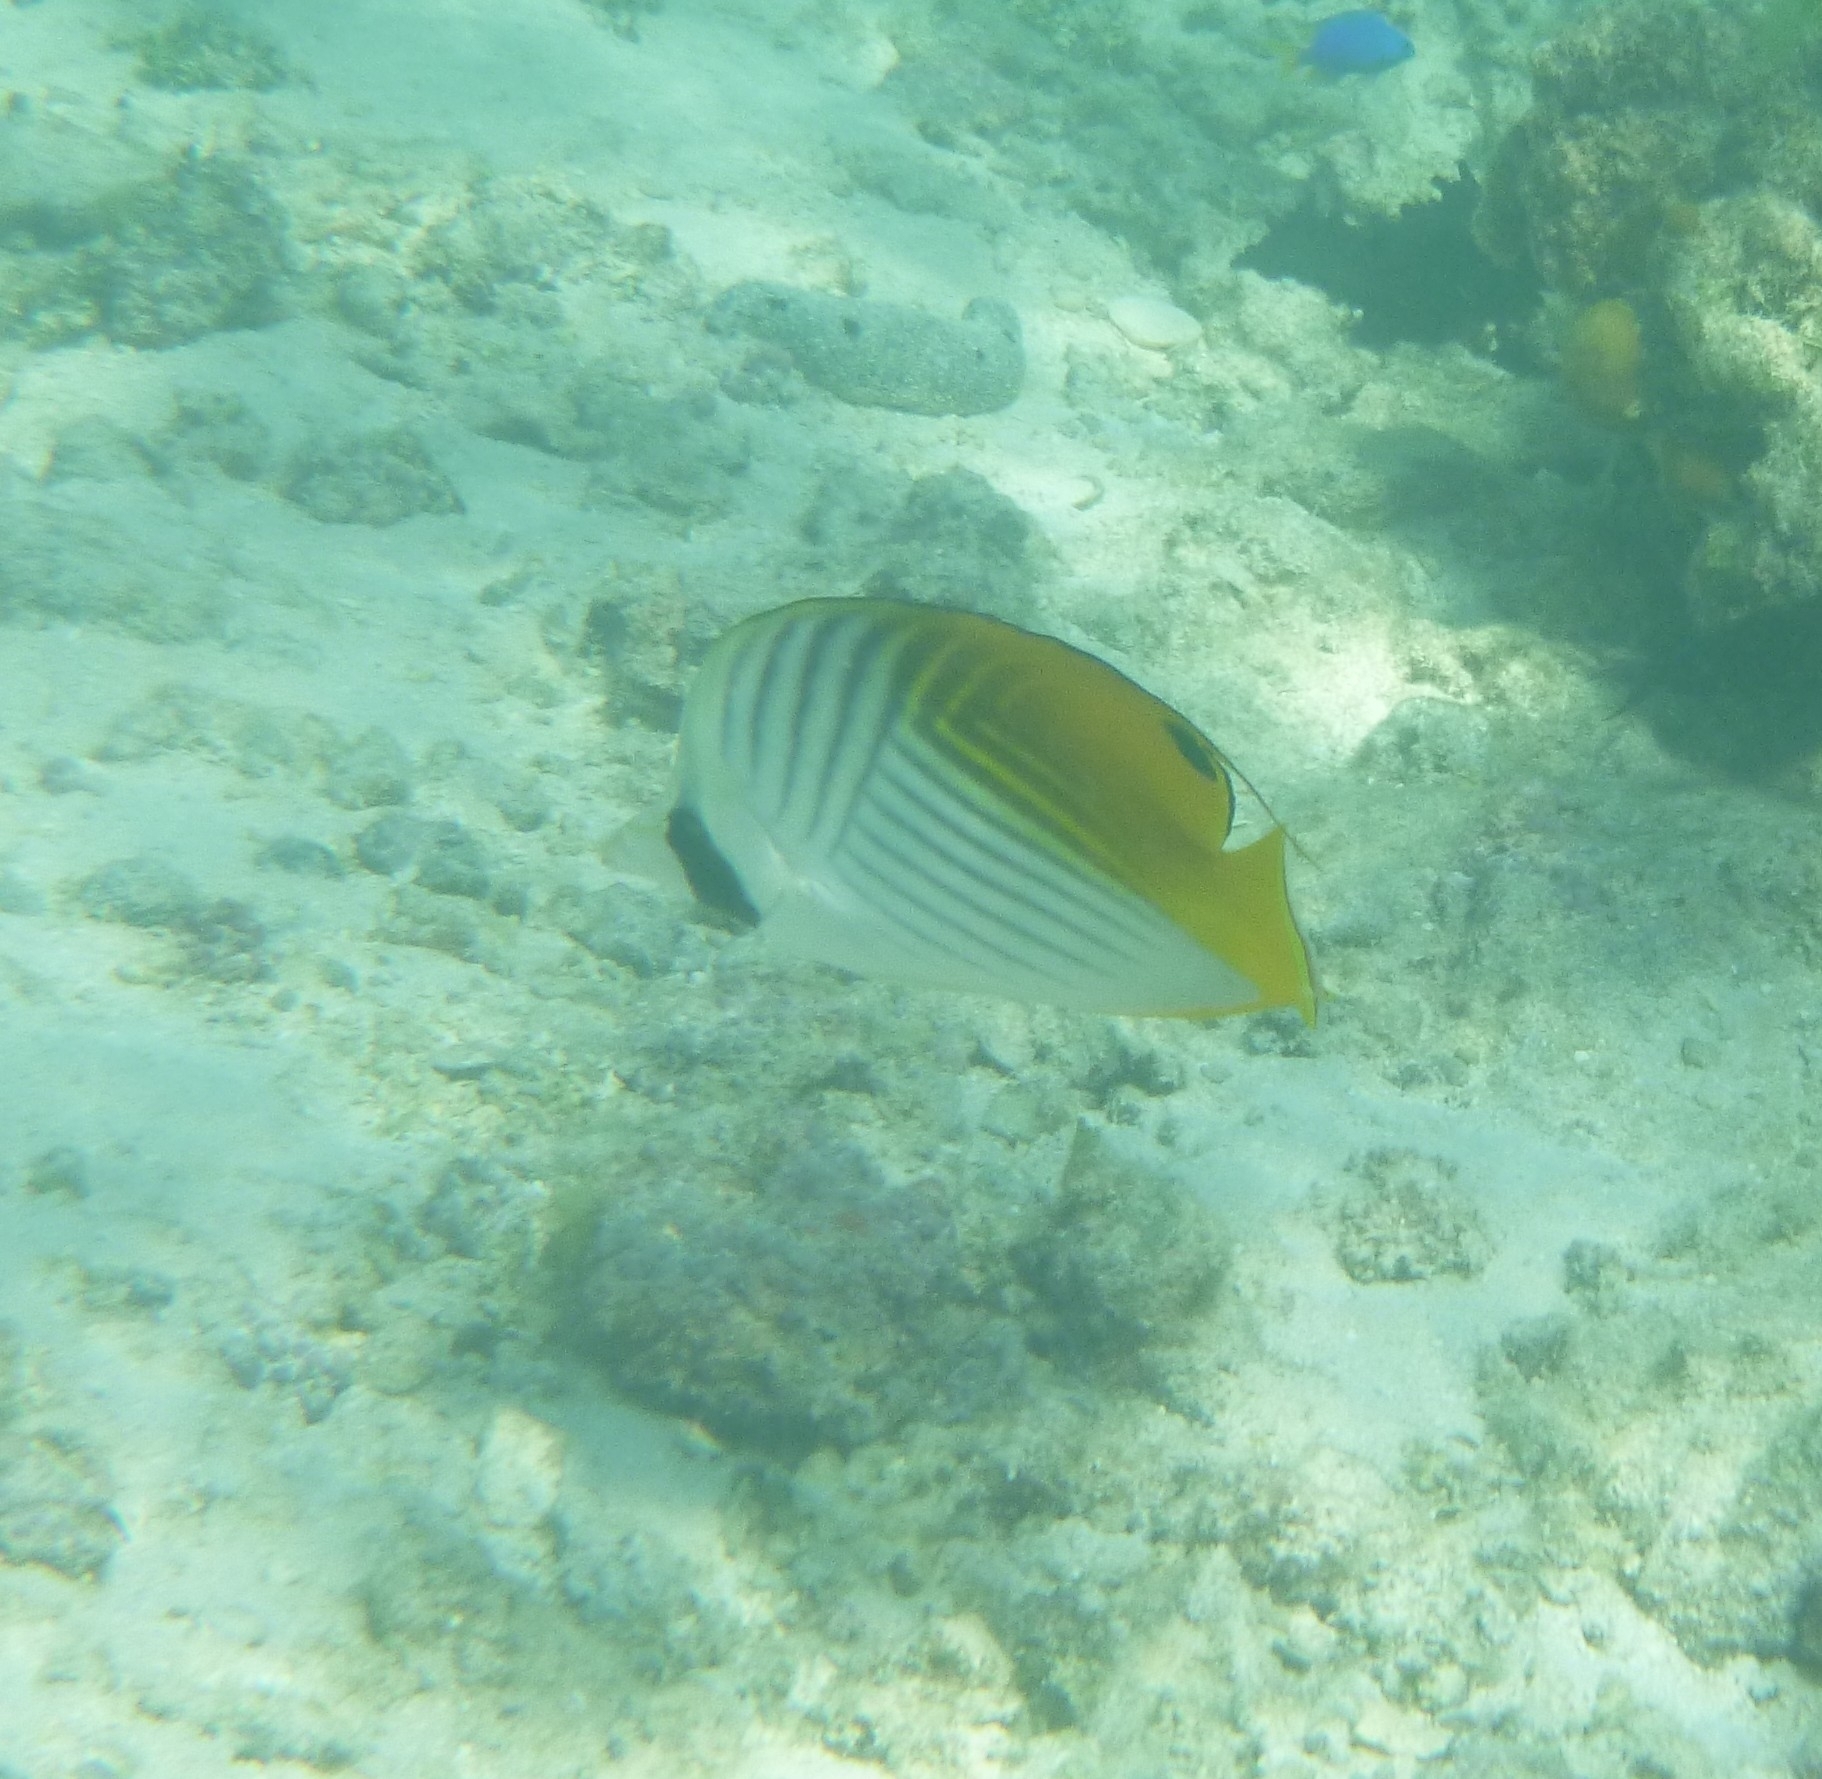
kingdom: Animalia
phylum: Chordata
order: Perciformes
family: Chaetodontidae
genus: Chaetodon
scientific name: Chaetodon auriga
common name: Threadfin butterflyfish
